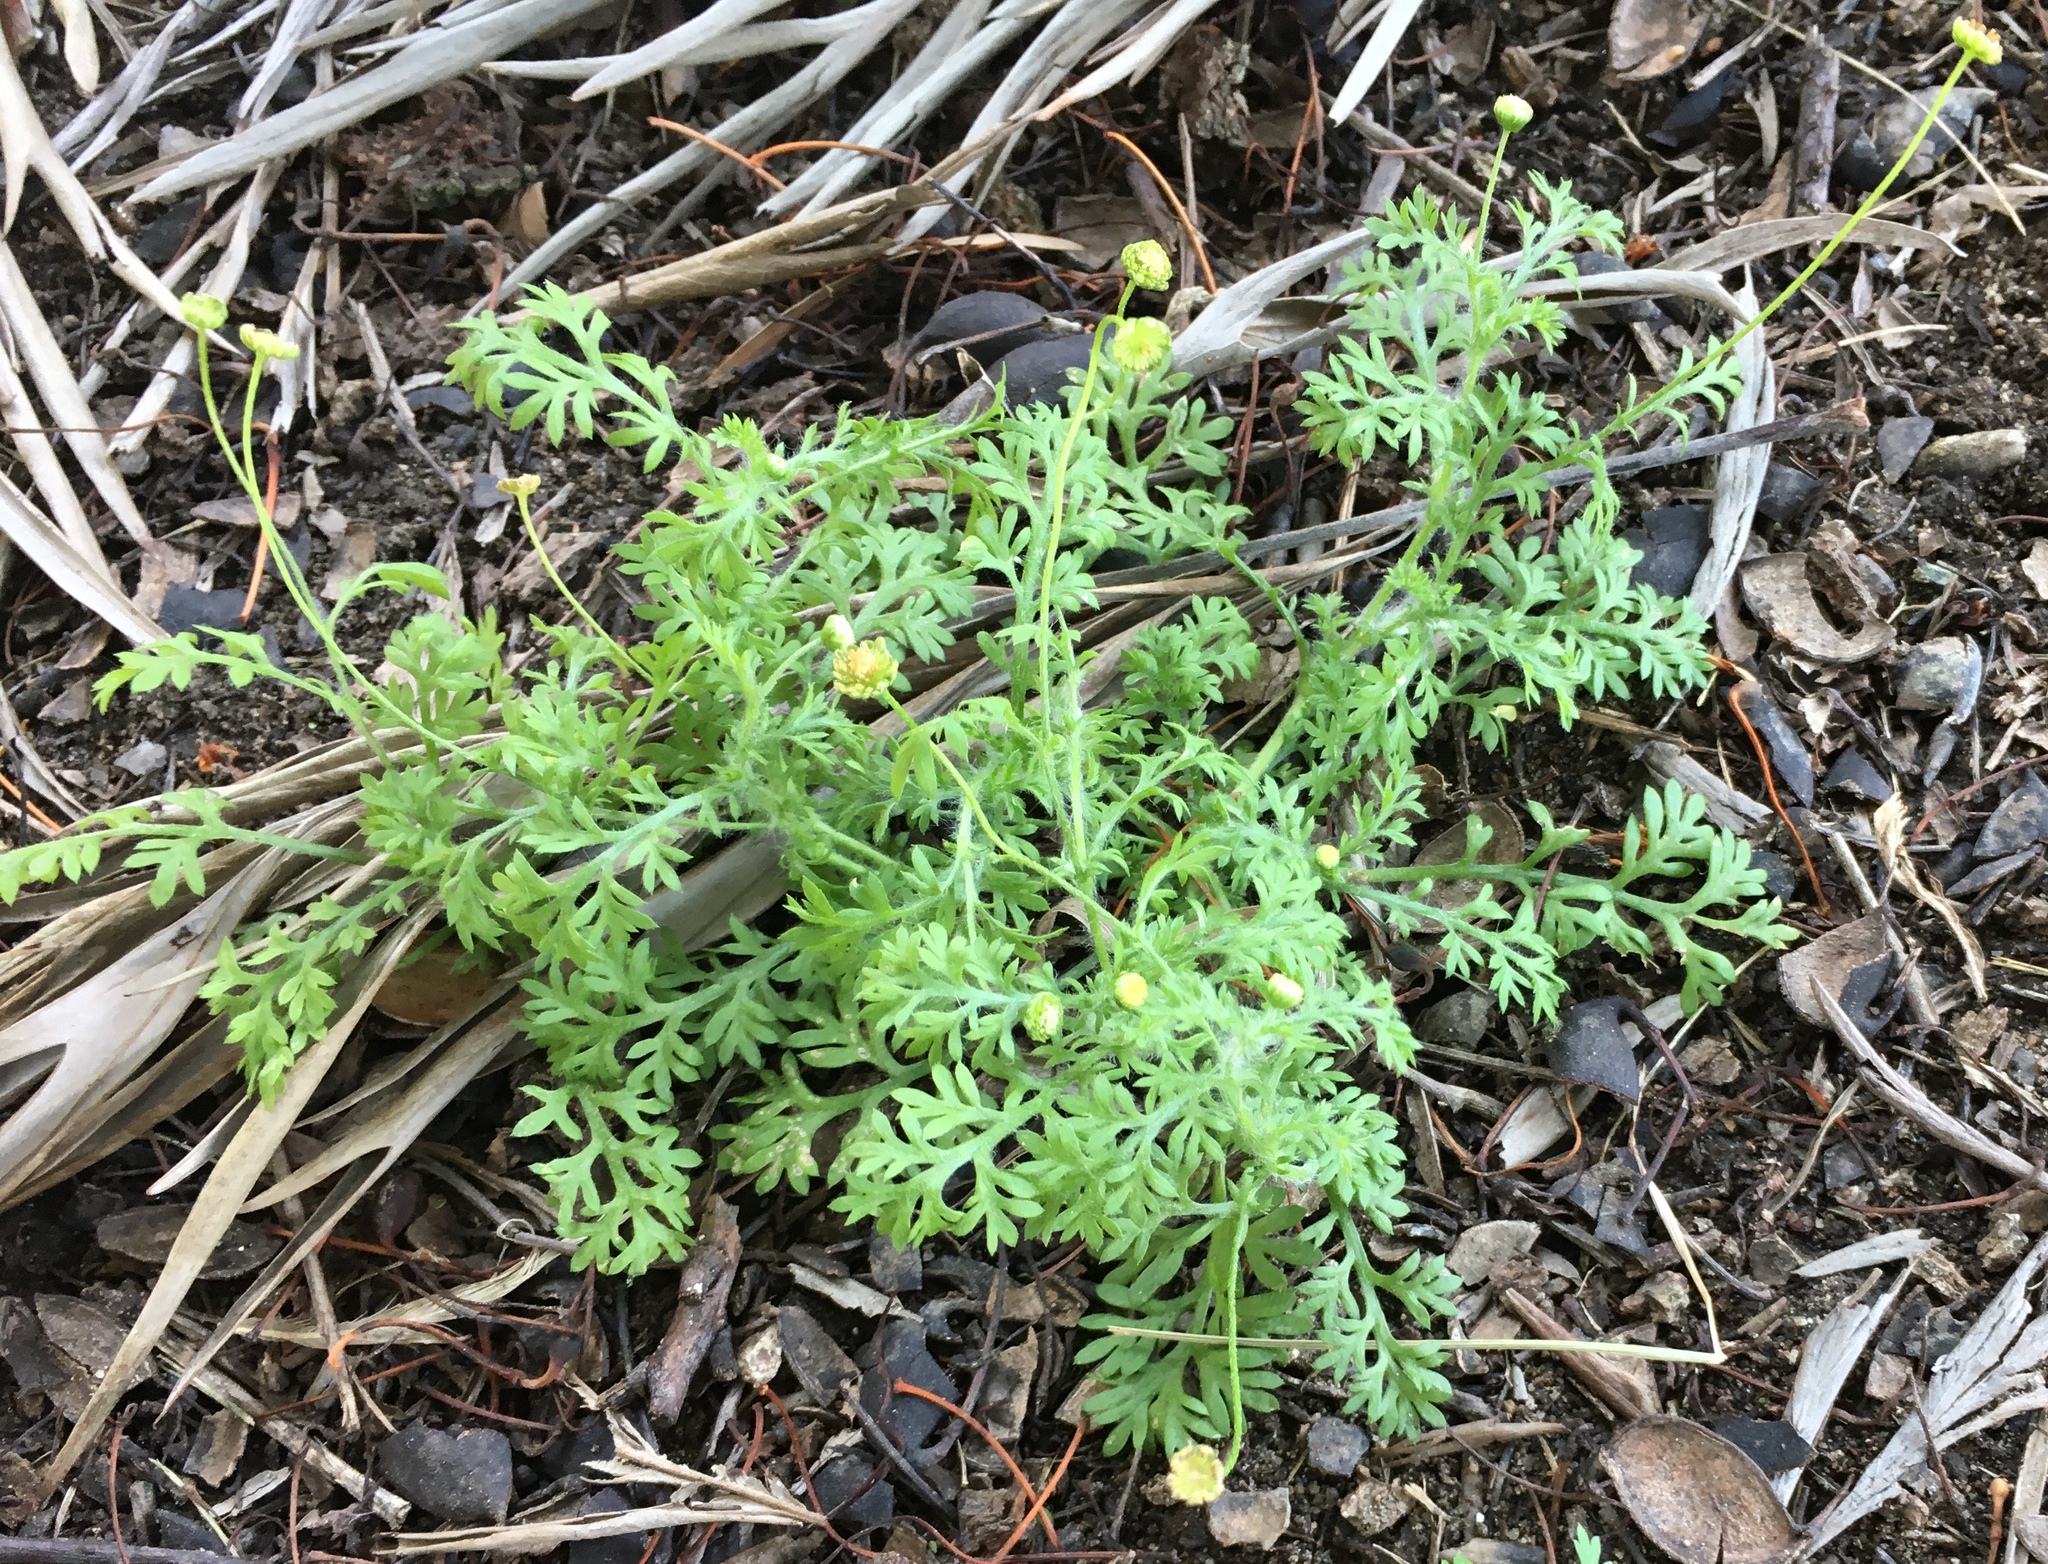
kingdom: Plantae
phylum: Tracheophyta
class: Magnoliopsida
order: Asterales
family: Asteraceae
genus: Cotula
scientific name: Cotula australis
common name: Australian waterbuttons
